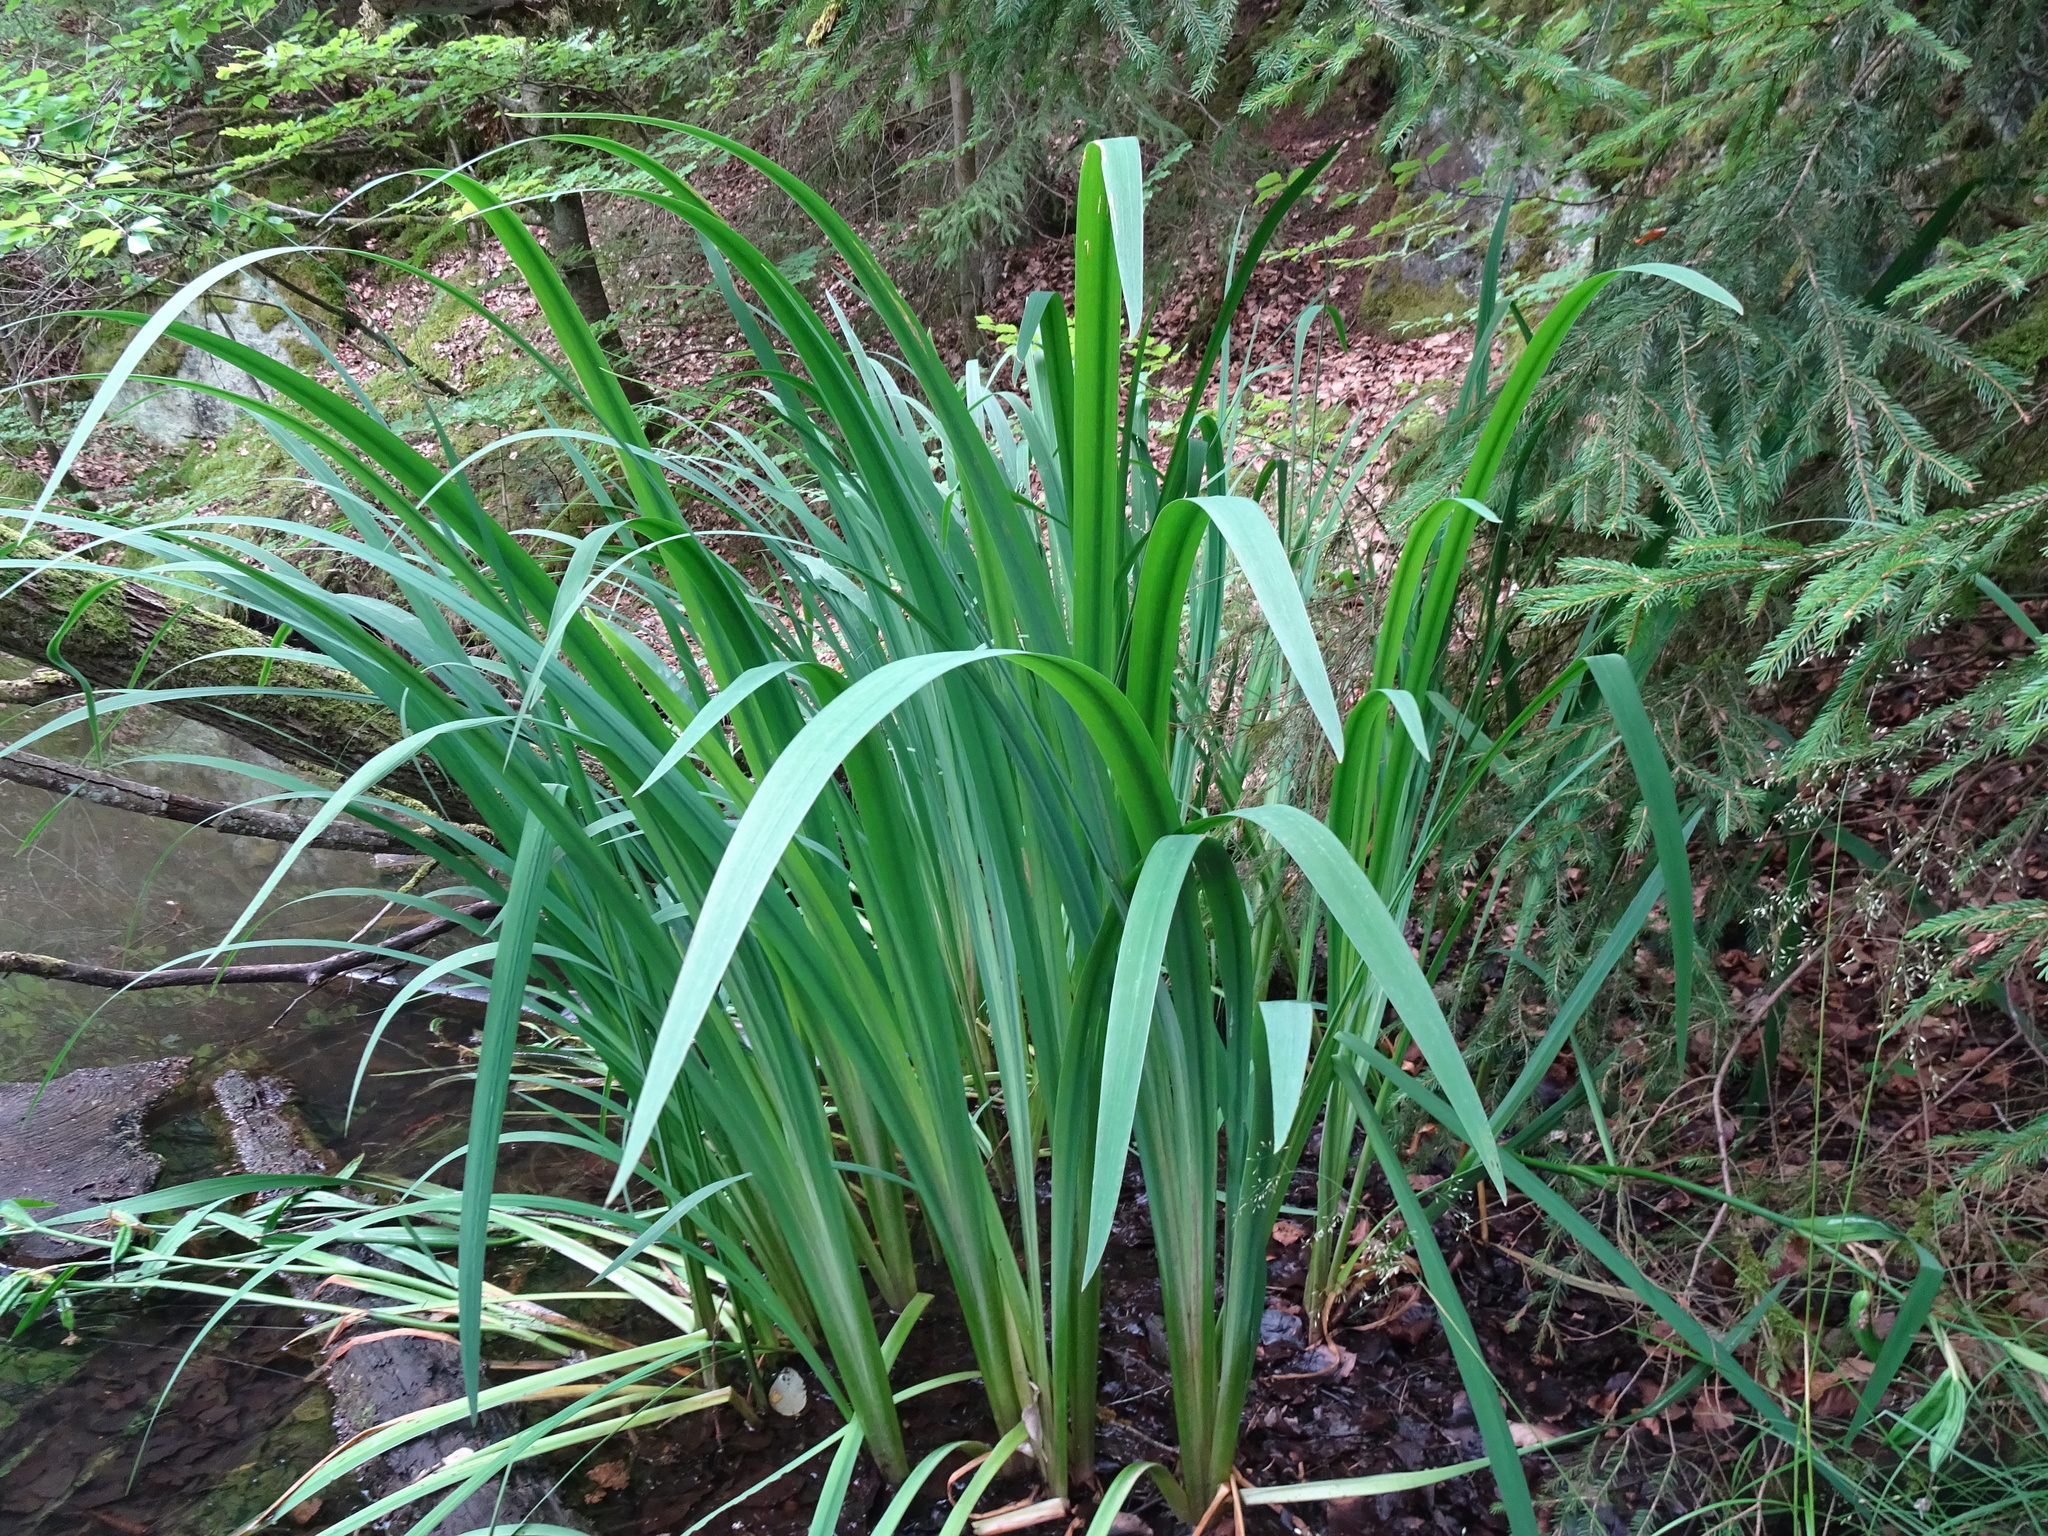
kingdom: Plantae
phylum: Tracheophyta
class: Liliopsida
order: Asparagales
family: Iridaceae
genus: Iris
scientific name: Iris pseudacorus
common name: Yellow flag
